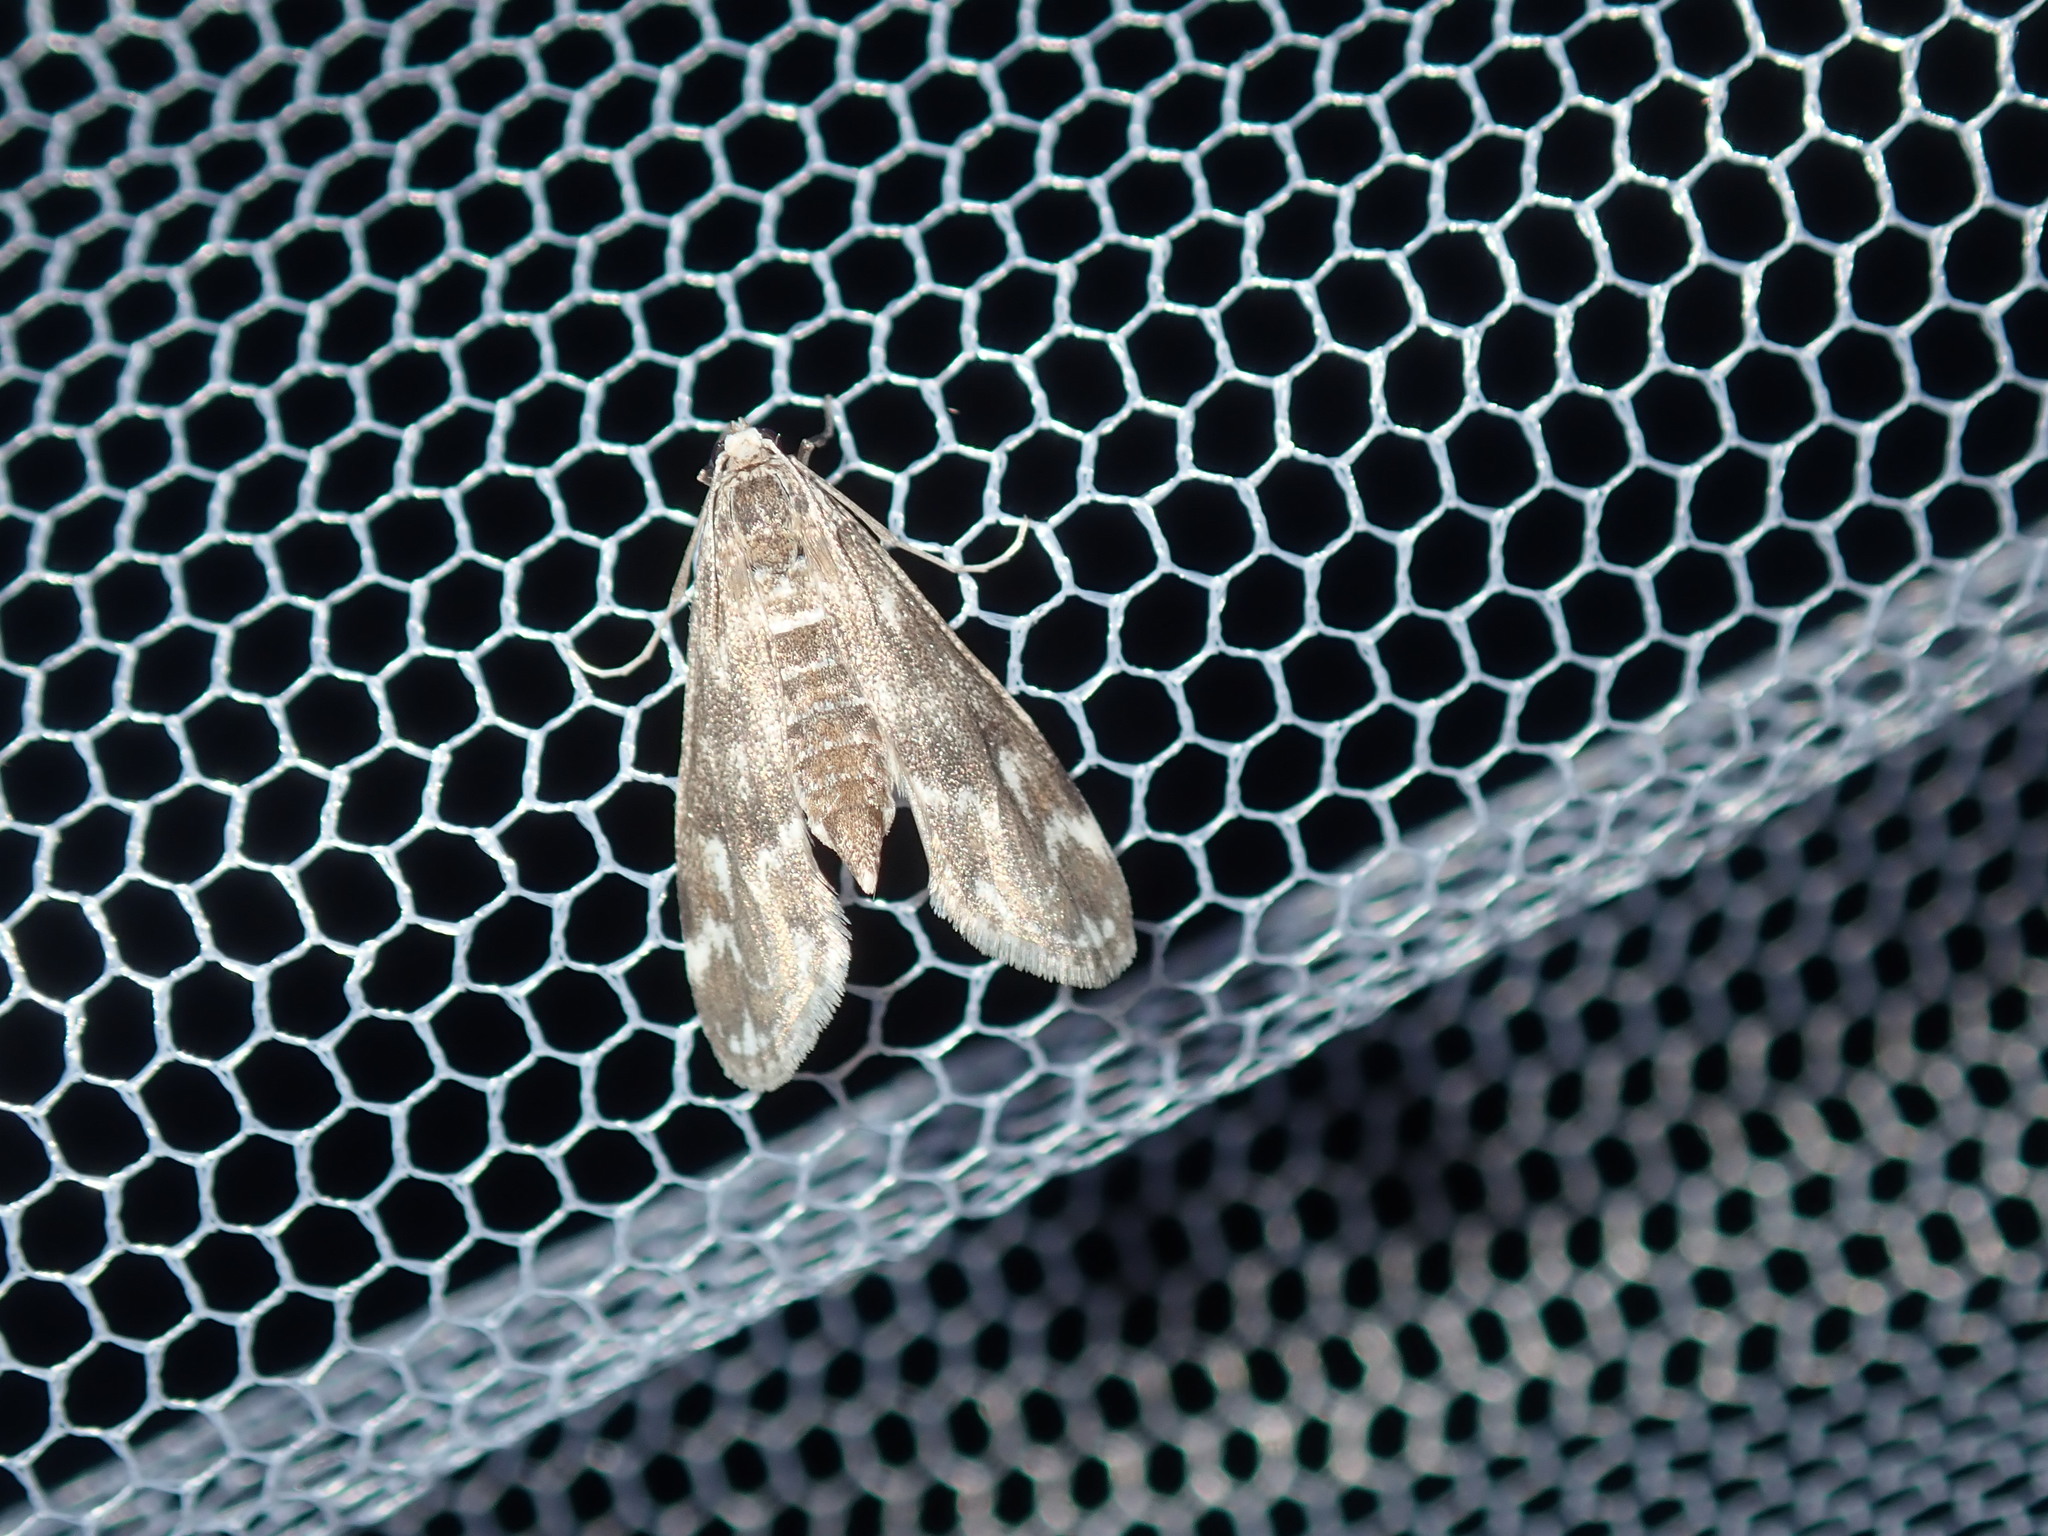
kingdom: Animalia
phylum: Arthropoda
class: Insecta
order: Lepidoptera
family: Crambidae
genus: Hygraula
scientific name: Hygraula nitens
